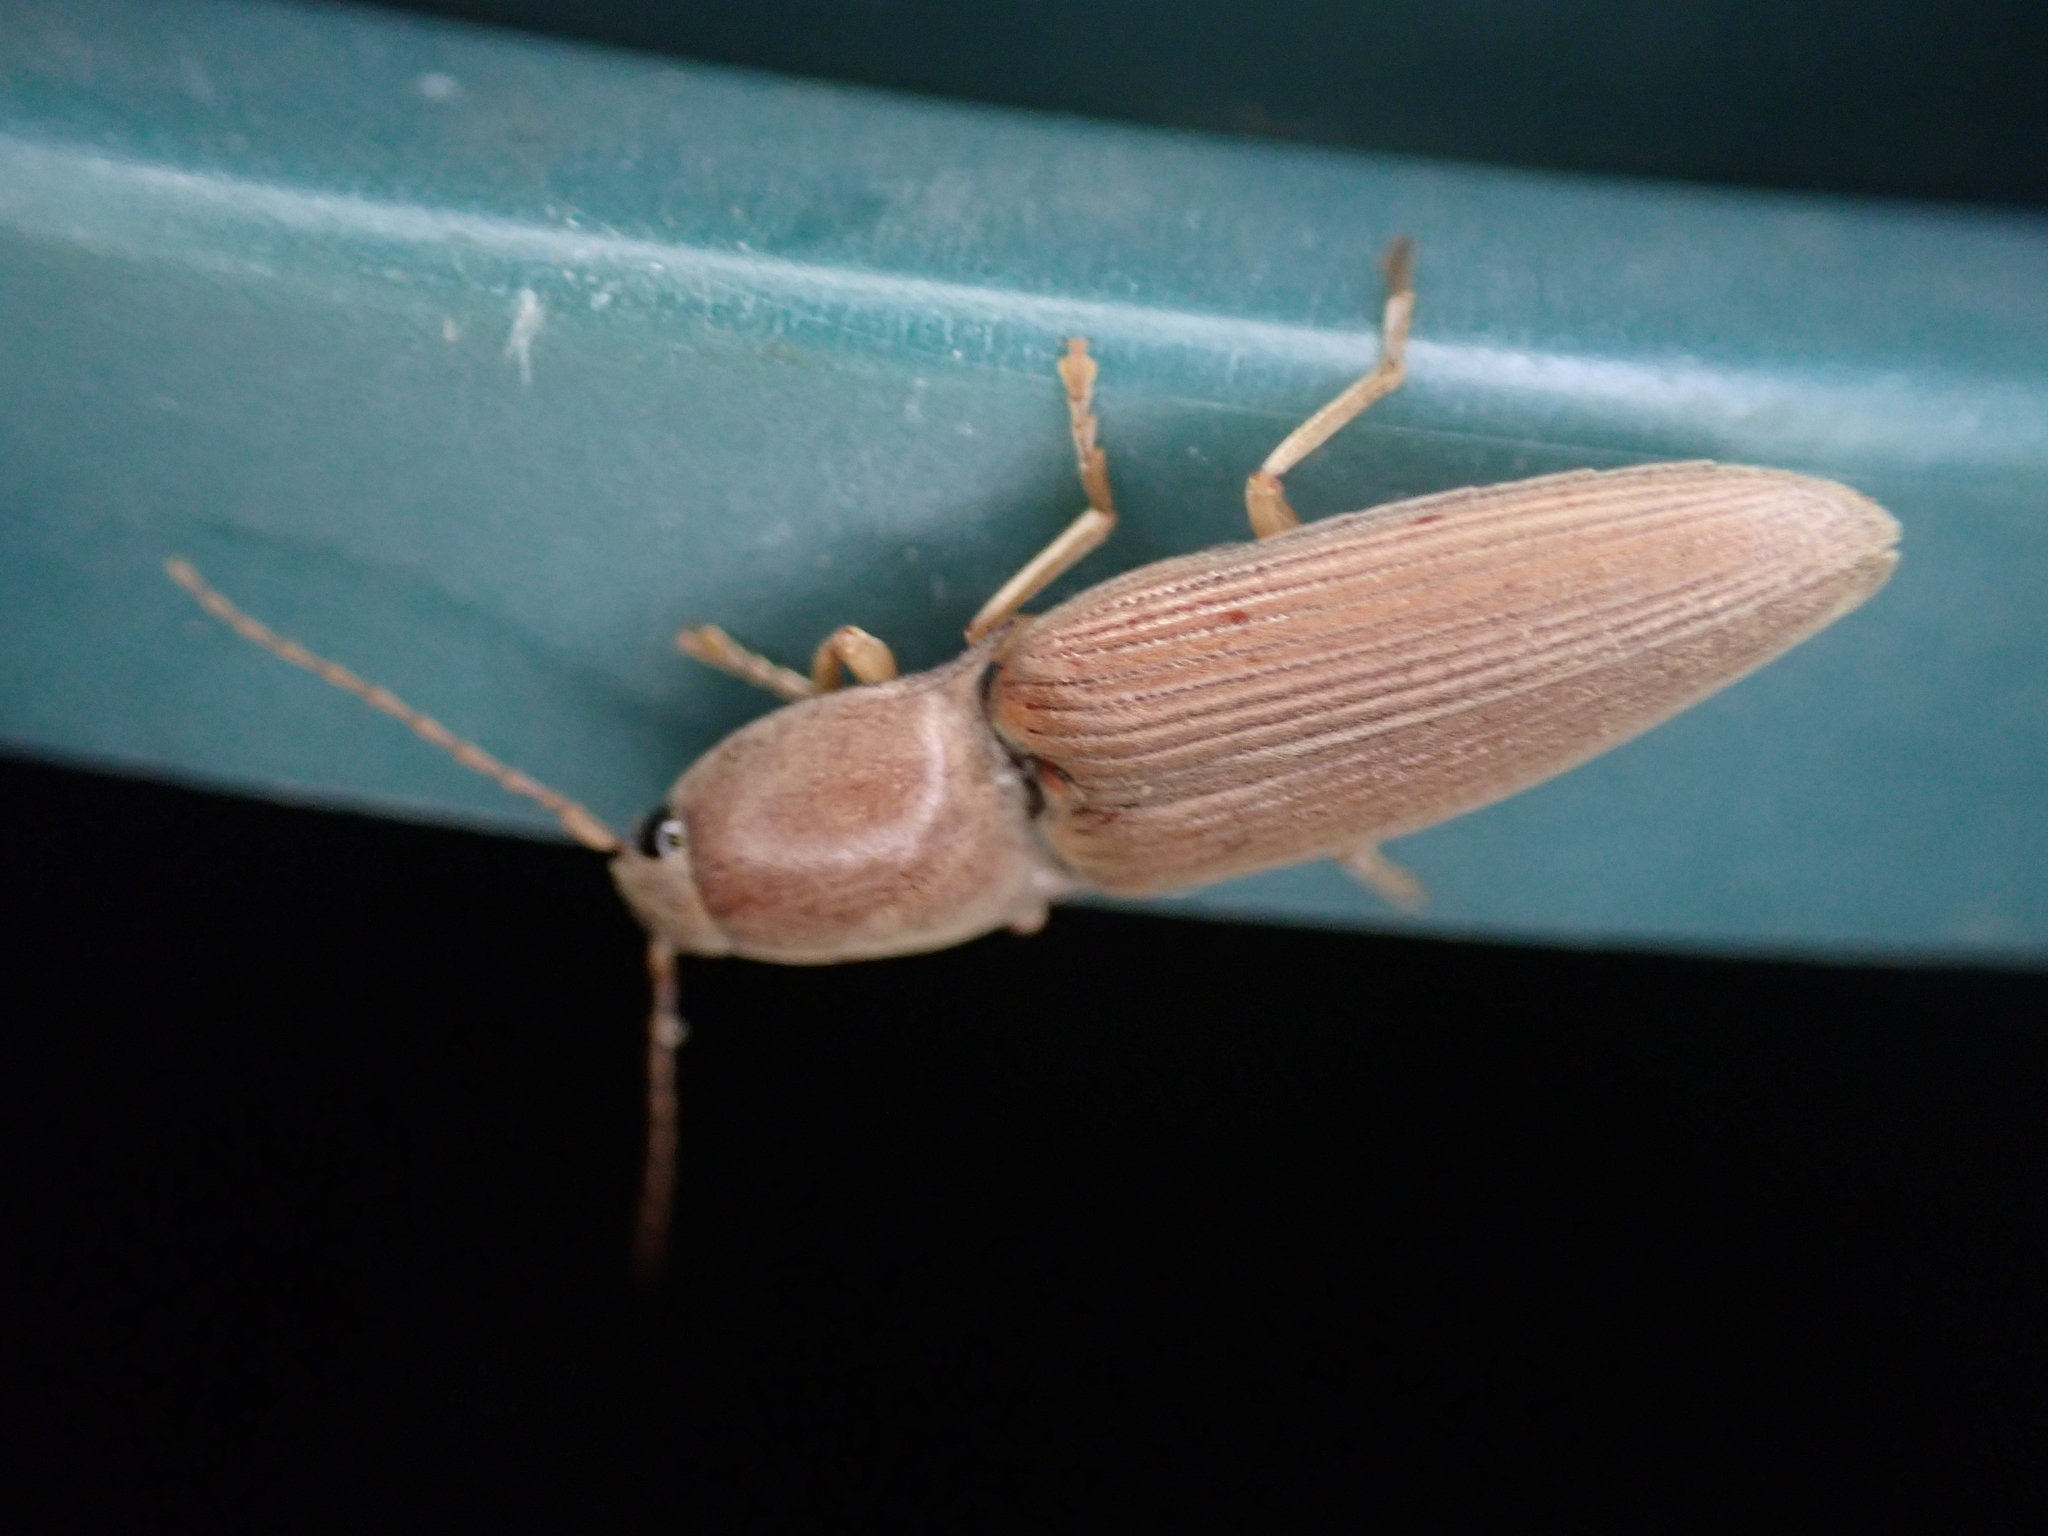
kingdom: Animalia
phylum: Arthropoda
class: Insecta
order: Coleoptera
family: Elateridae
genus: Monocrepidius
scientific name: Monocrepidius lividus
